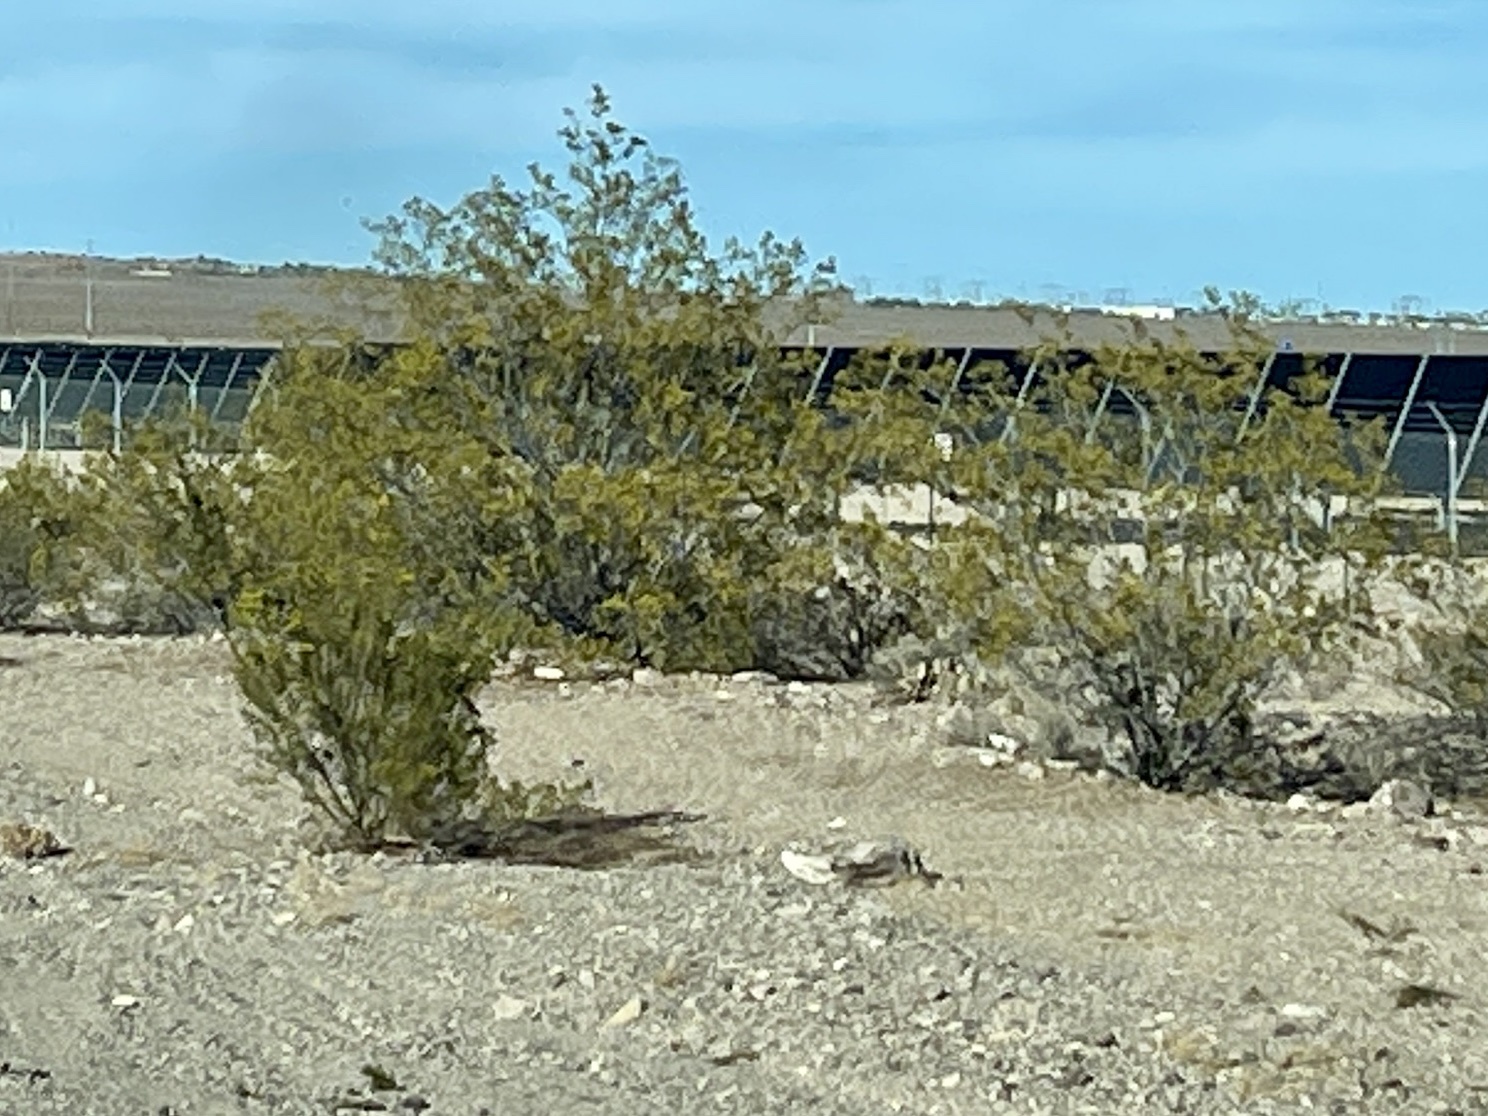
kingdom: Plantae
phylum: Tracheophyta
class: Magnoliopsida
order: Zygophyllales
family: Zygophyllaceae
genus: Larrea
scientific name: Larrea tridentata
